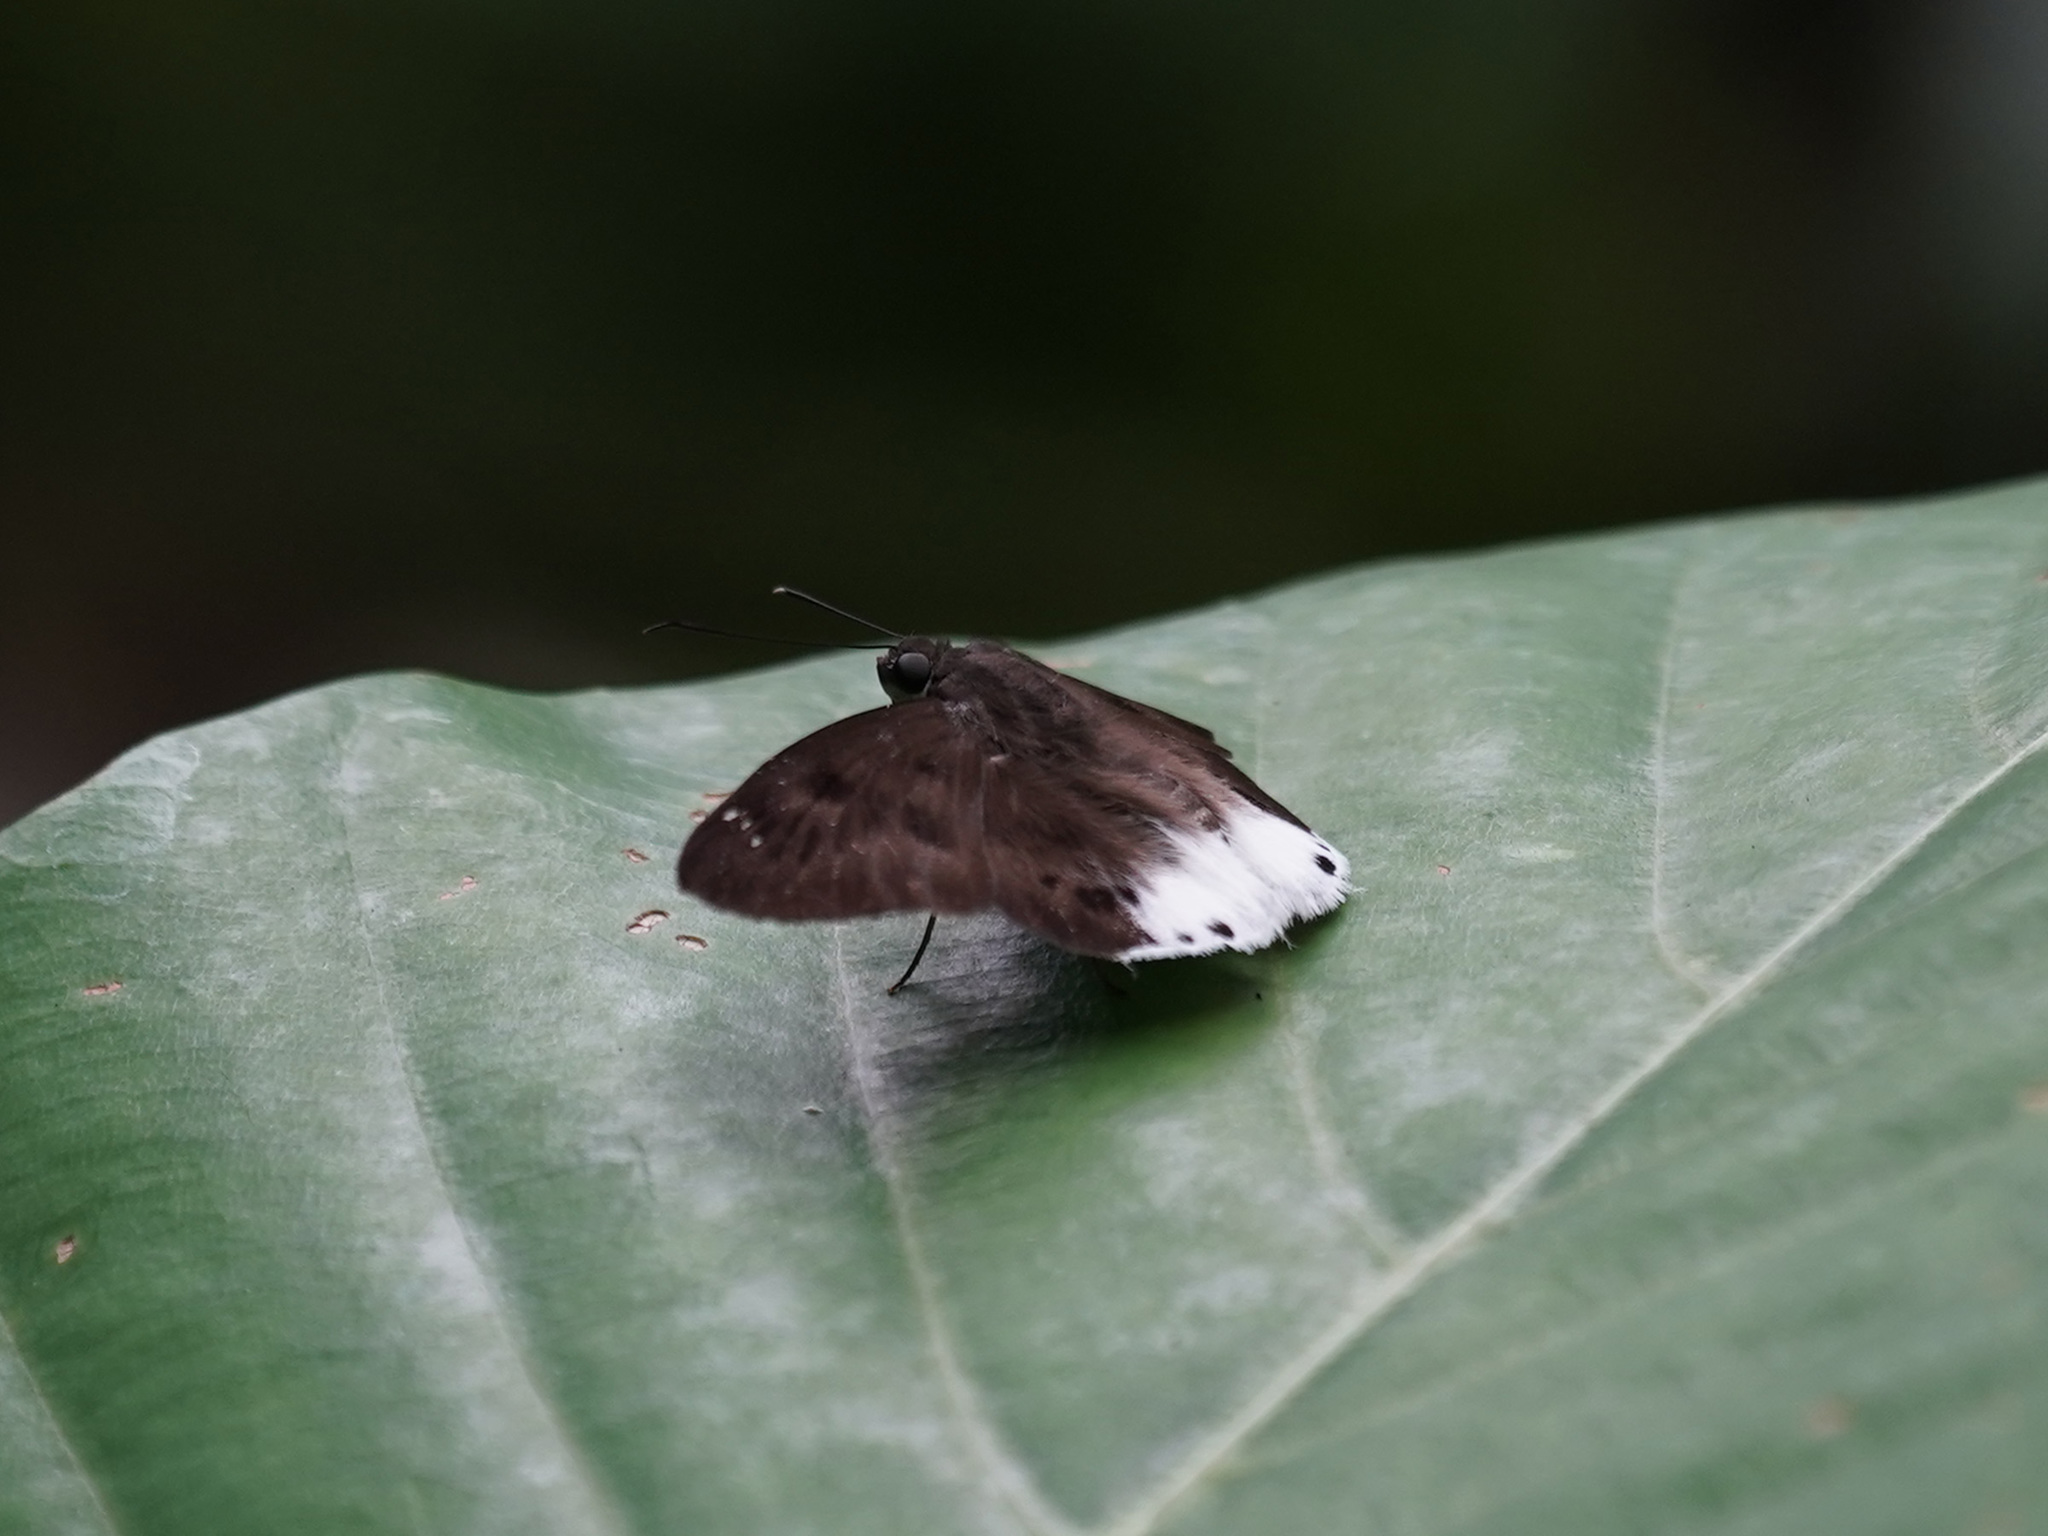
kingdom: Animalia
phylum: Arthropoda
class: Insecta
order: Lepidoptera
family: Hesperiidae
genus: Tagiades
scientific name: Tagiades gana
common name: Suffused snow flat
